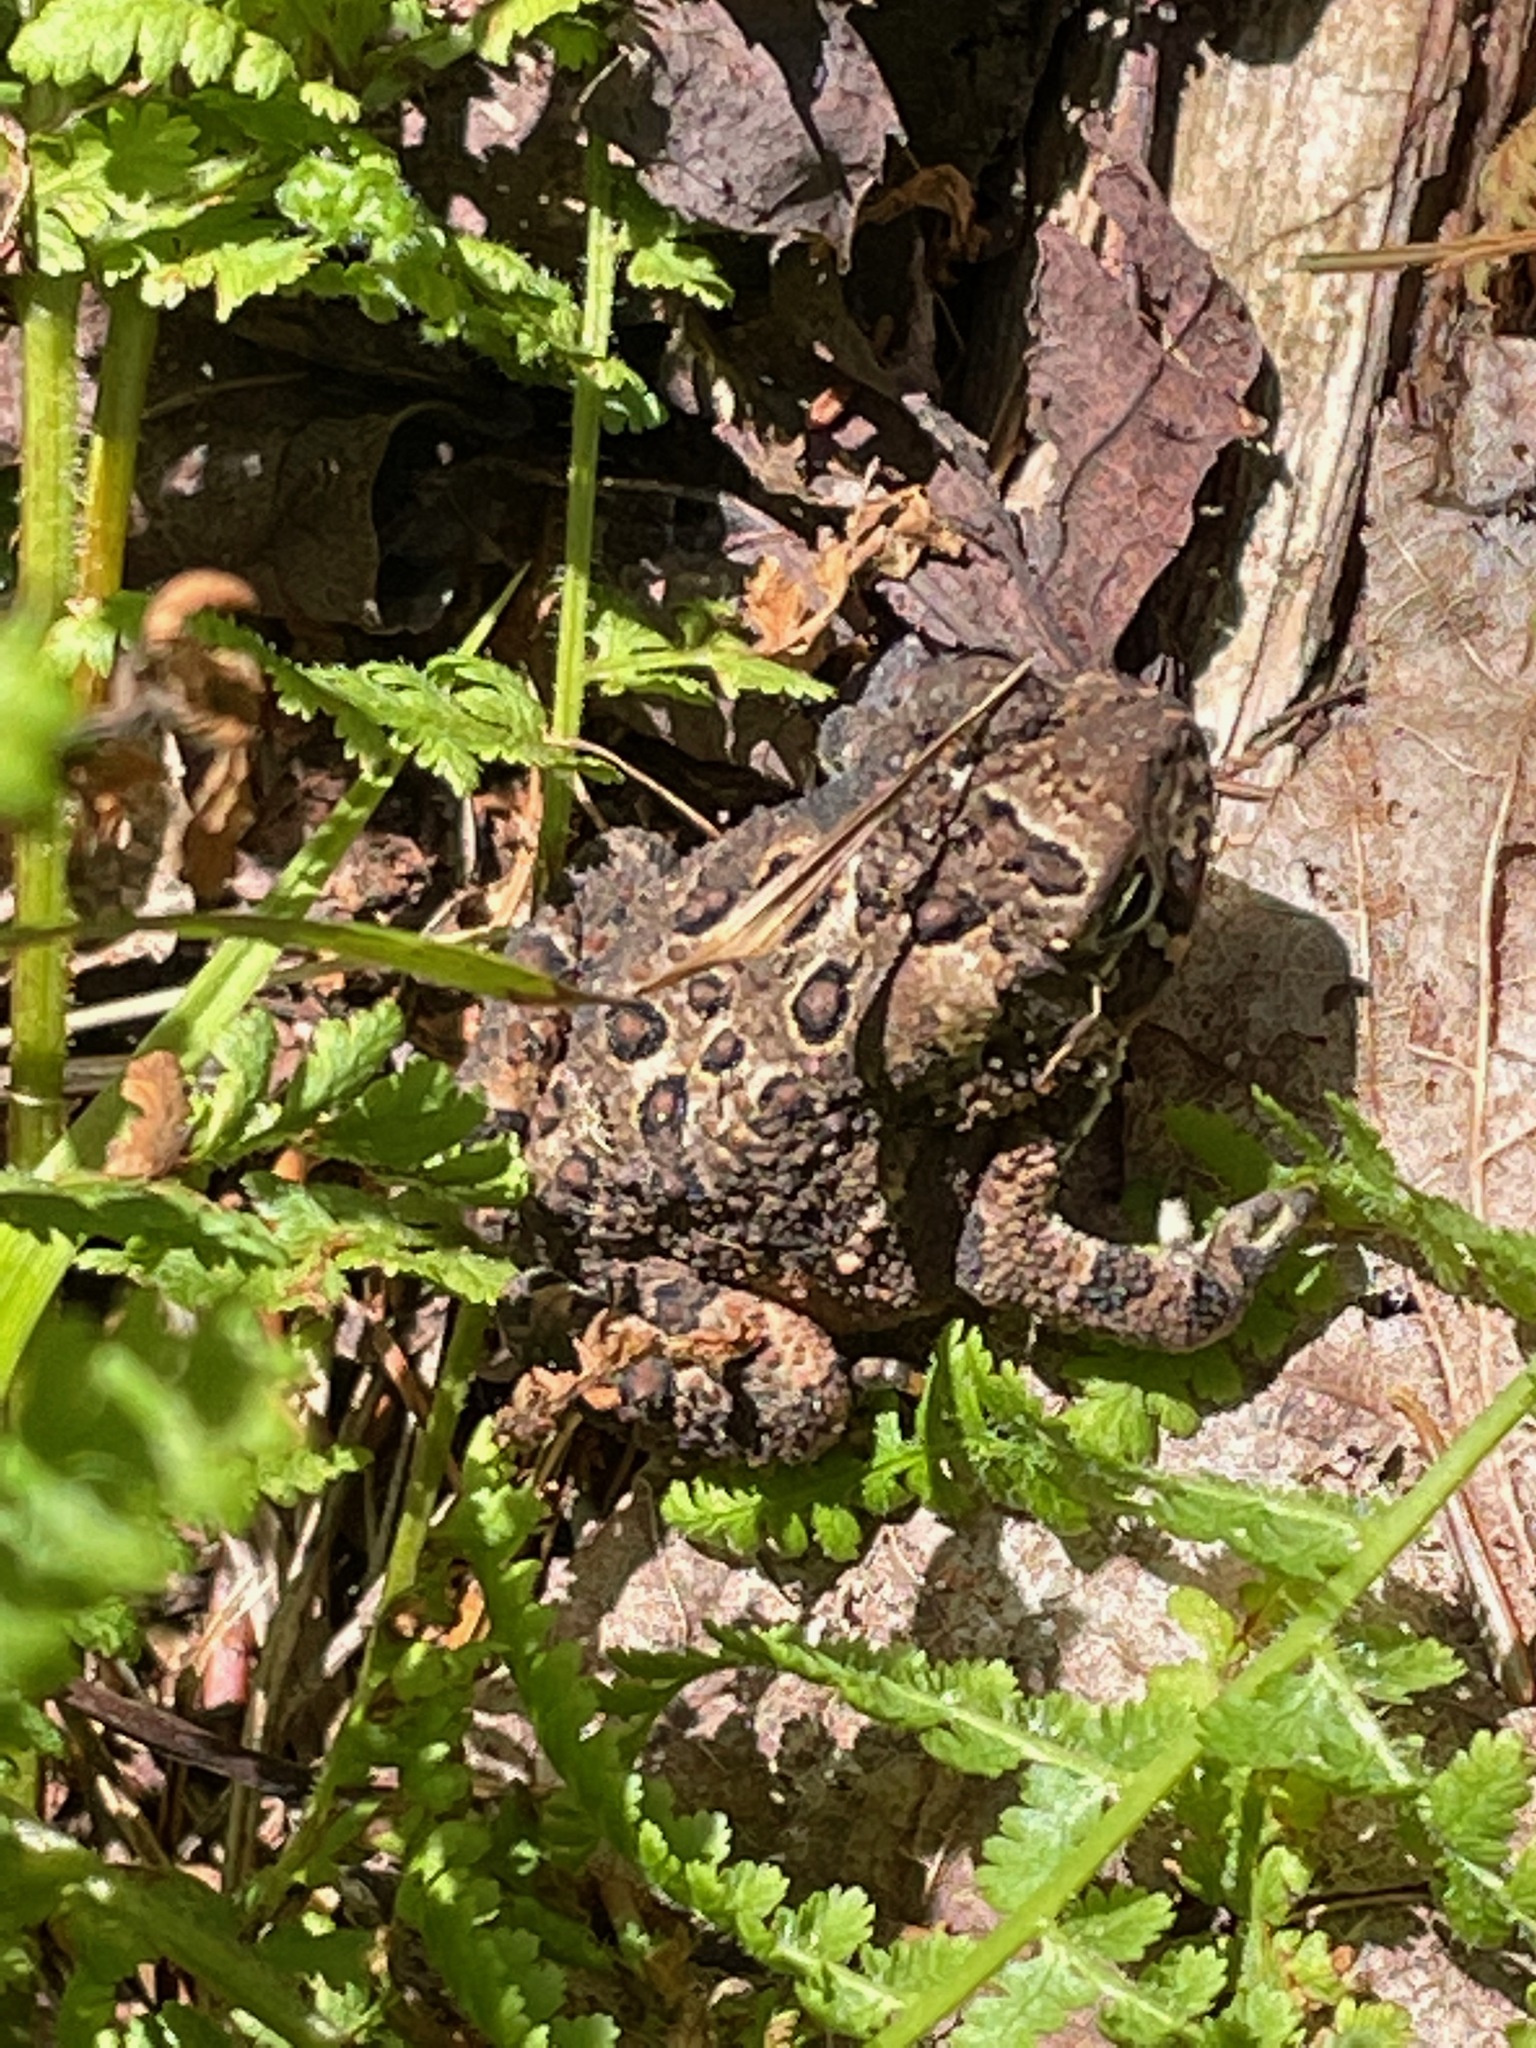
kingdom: Animalia
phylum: Chordata
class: Amphibia
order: Anura
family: Bufonidae
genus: Anaxyrus
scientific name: Anaxyrus americanus
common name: American toad
